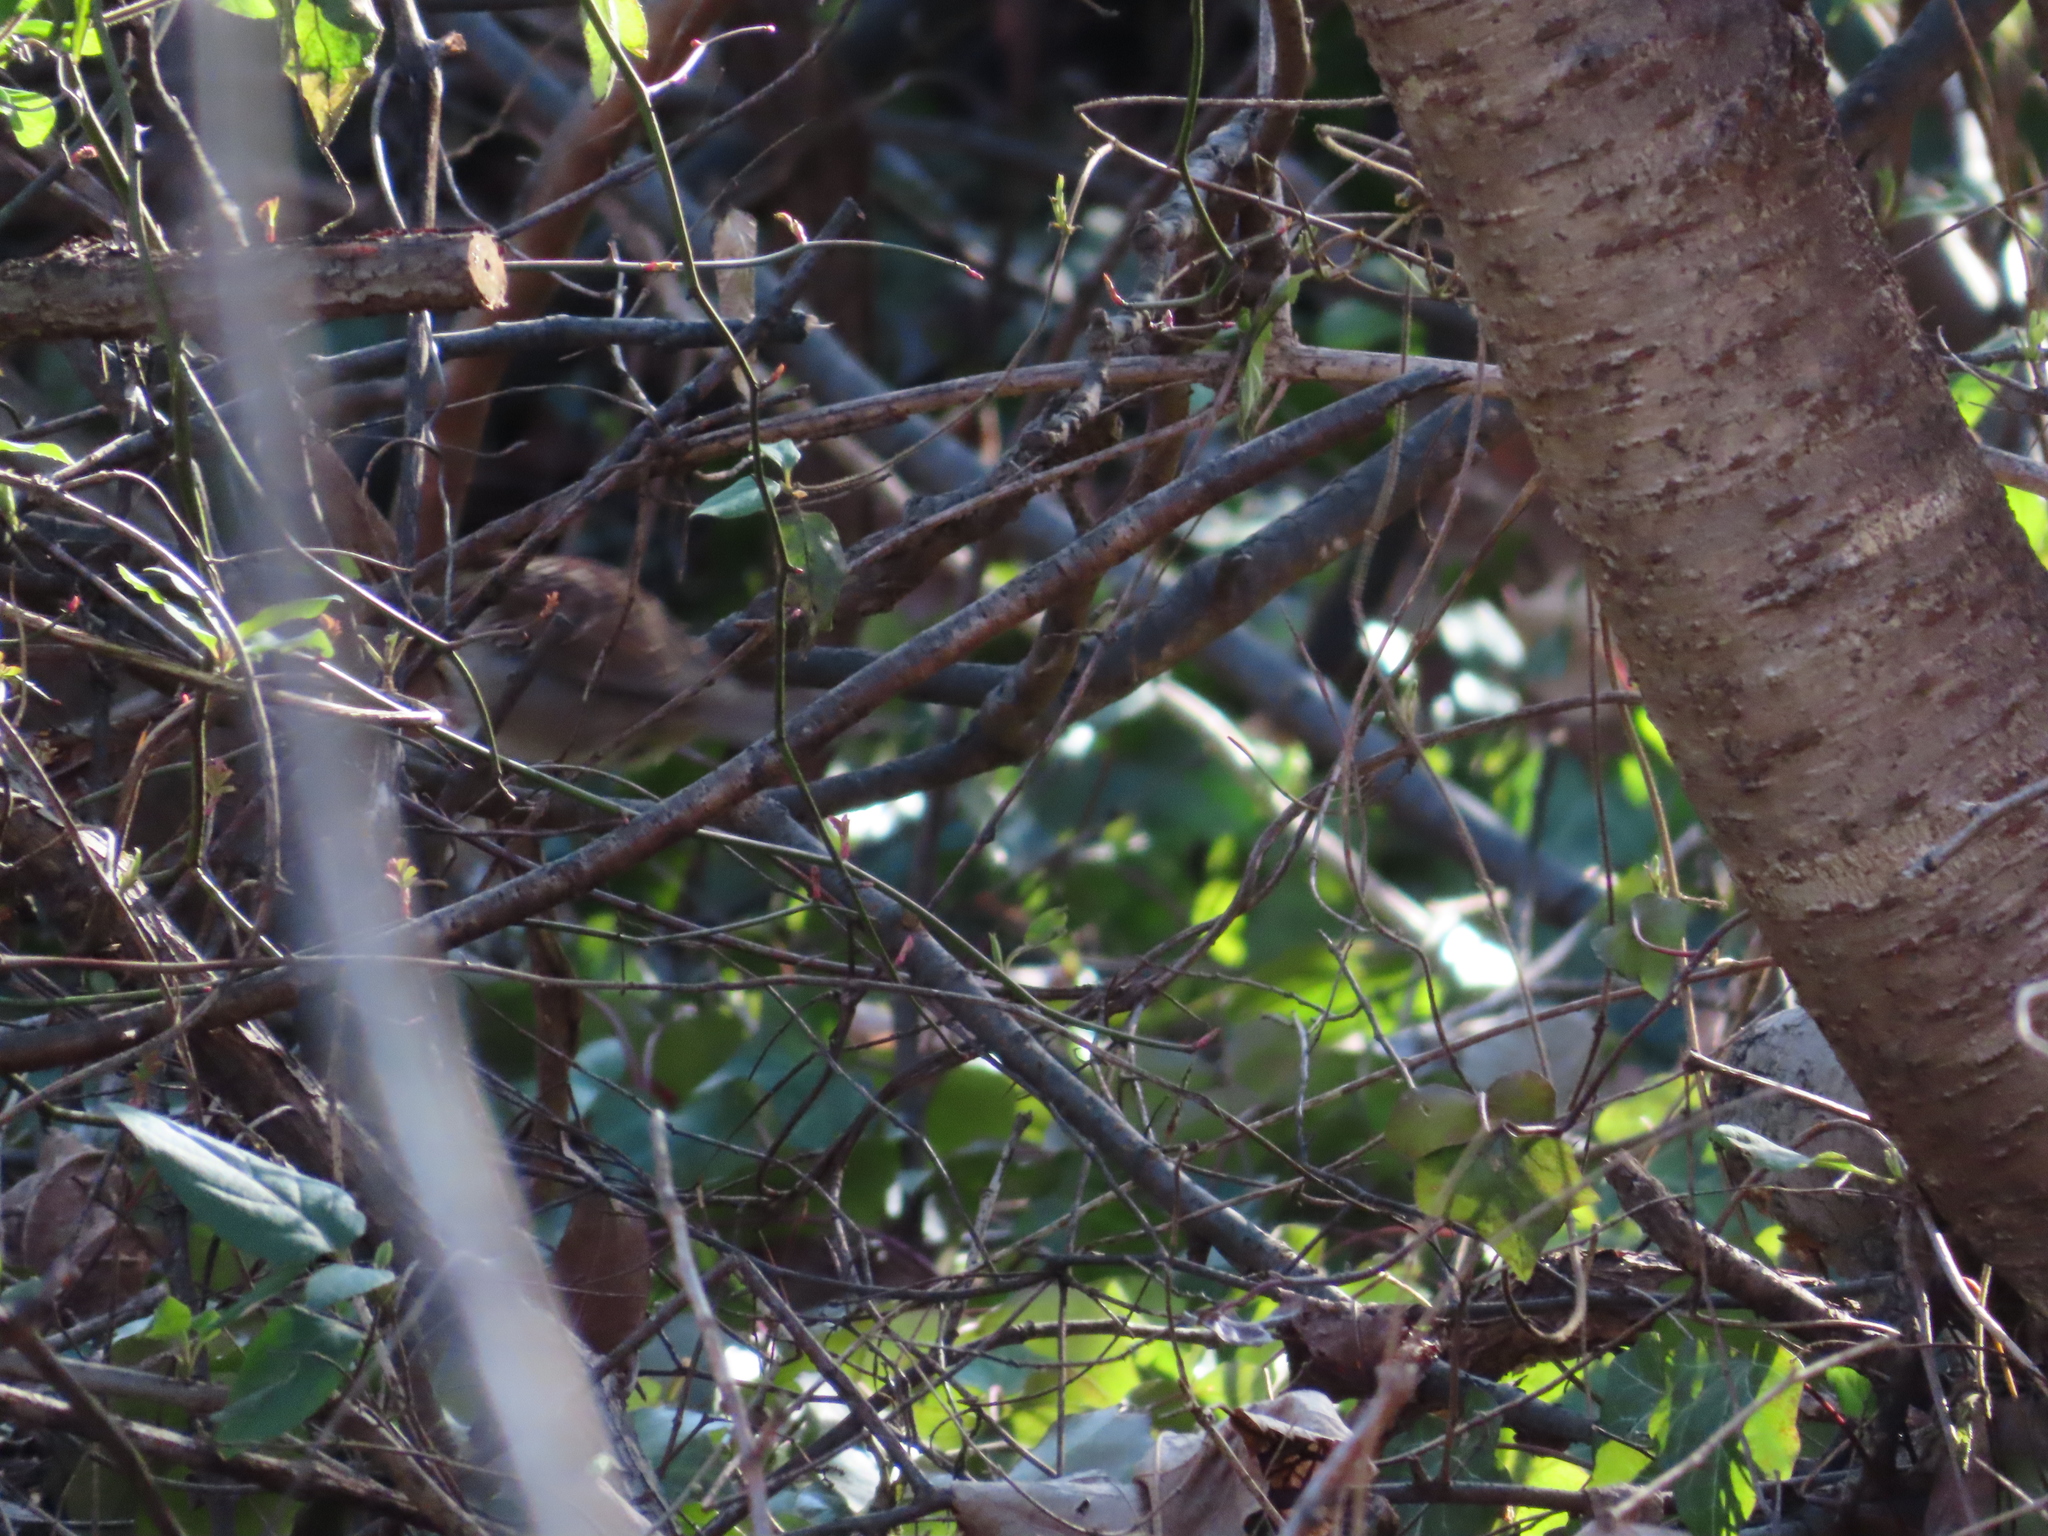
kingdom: Animalia
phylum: Chordata
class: Aves
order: Passeriformes
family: Passerellidae
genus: Zonotrichia
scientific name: Zonotrichia albicollis
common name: White-throated sparrow
